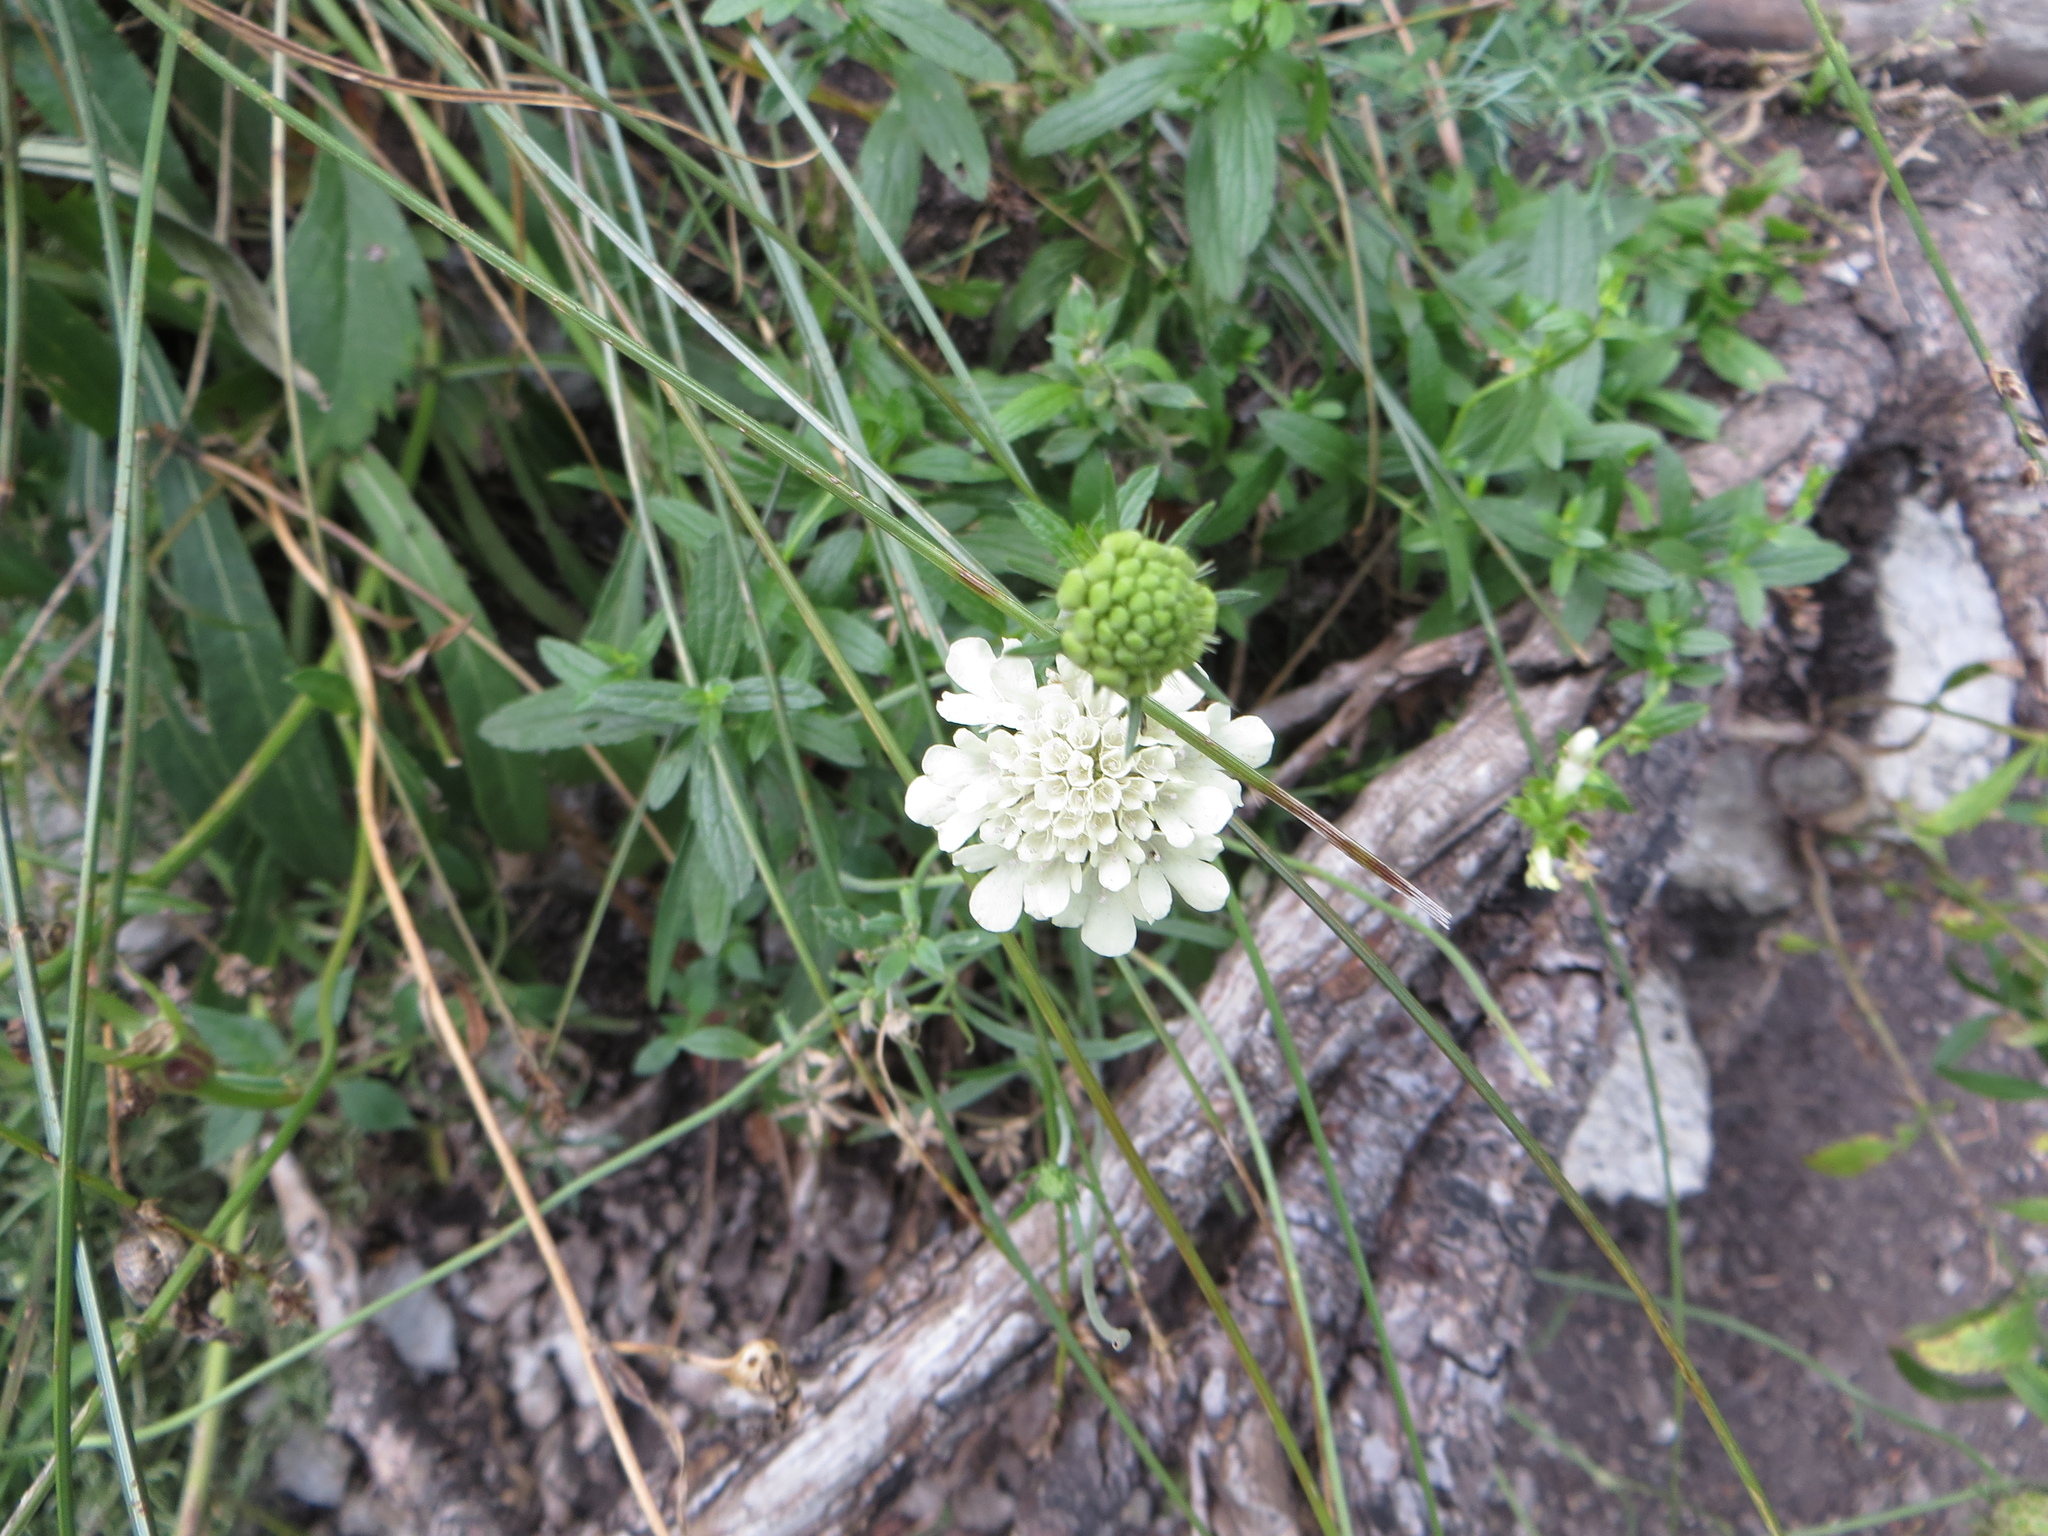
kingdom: Plantae
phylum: Tracheophyta
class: Magnoliopsida
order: Dipsacales
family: Caprifoliaceae
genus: Scabiosa
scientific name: Scabiosa ochroleuca
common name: Cream pincushions
